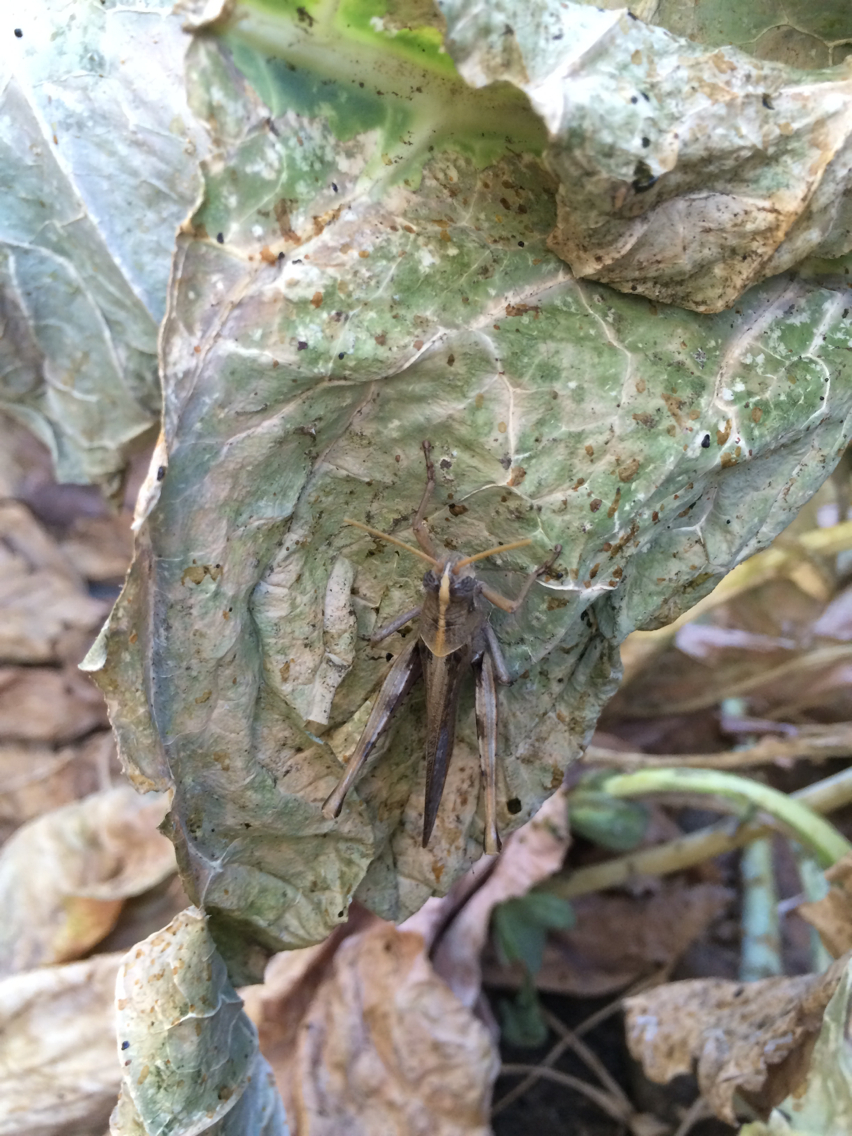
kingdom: Animalia
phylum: Arthropoda
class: Insecta
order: Orthoptera
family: Acrididae
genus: Schistocerca
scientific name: Schistocerca nitens
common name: Vagrant grasshopper
